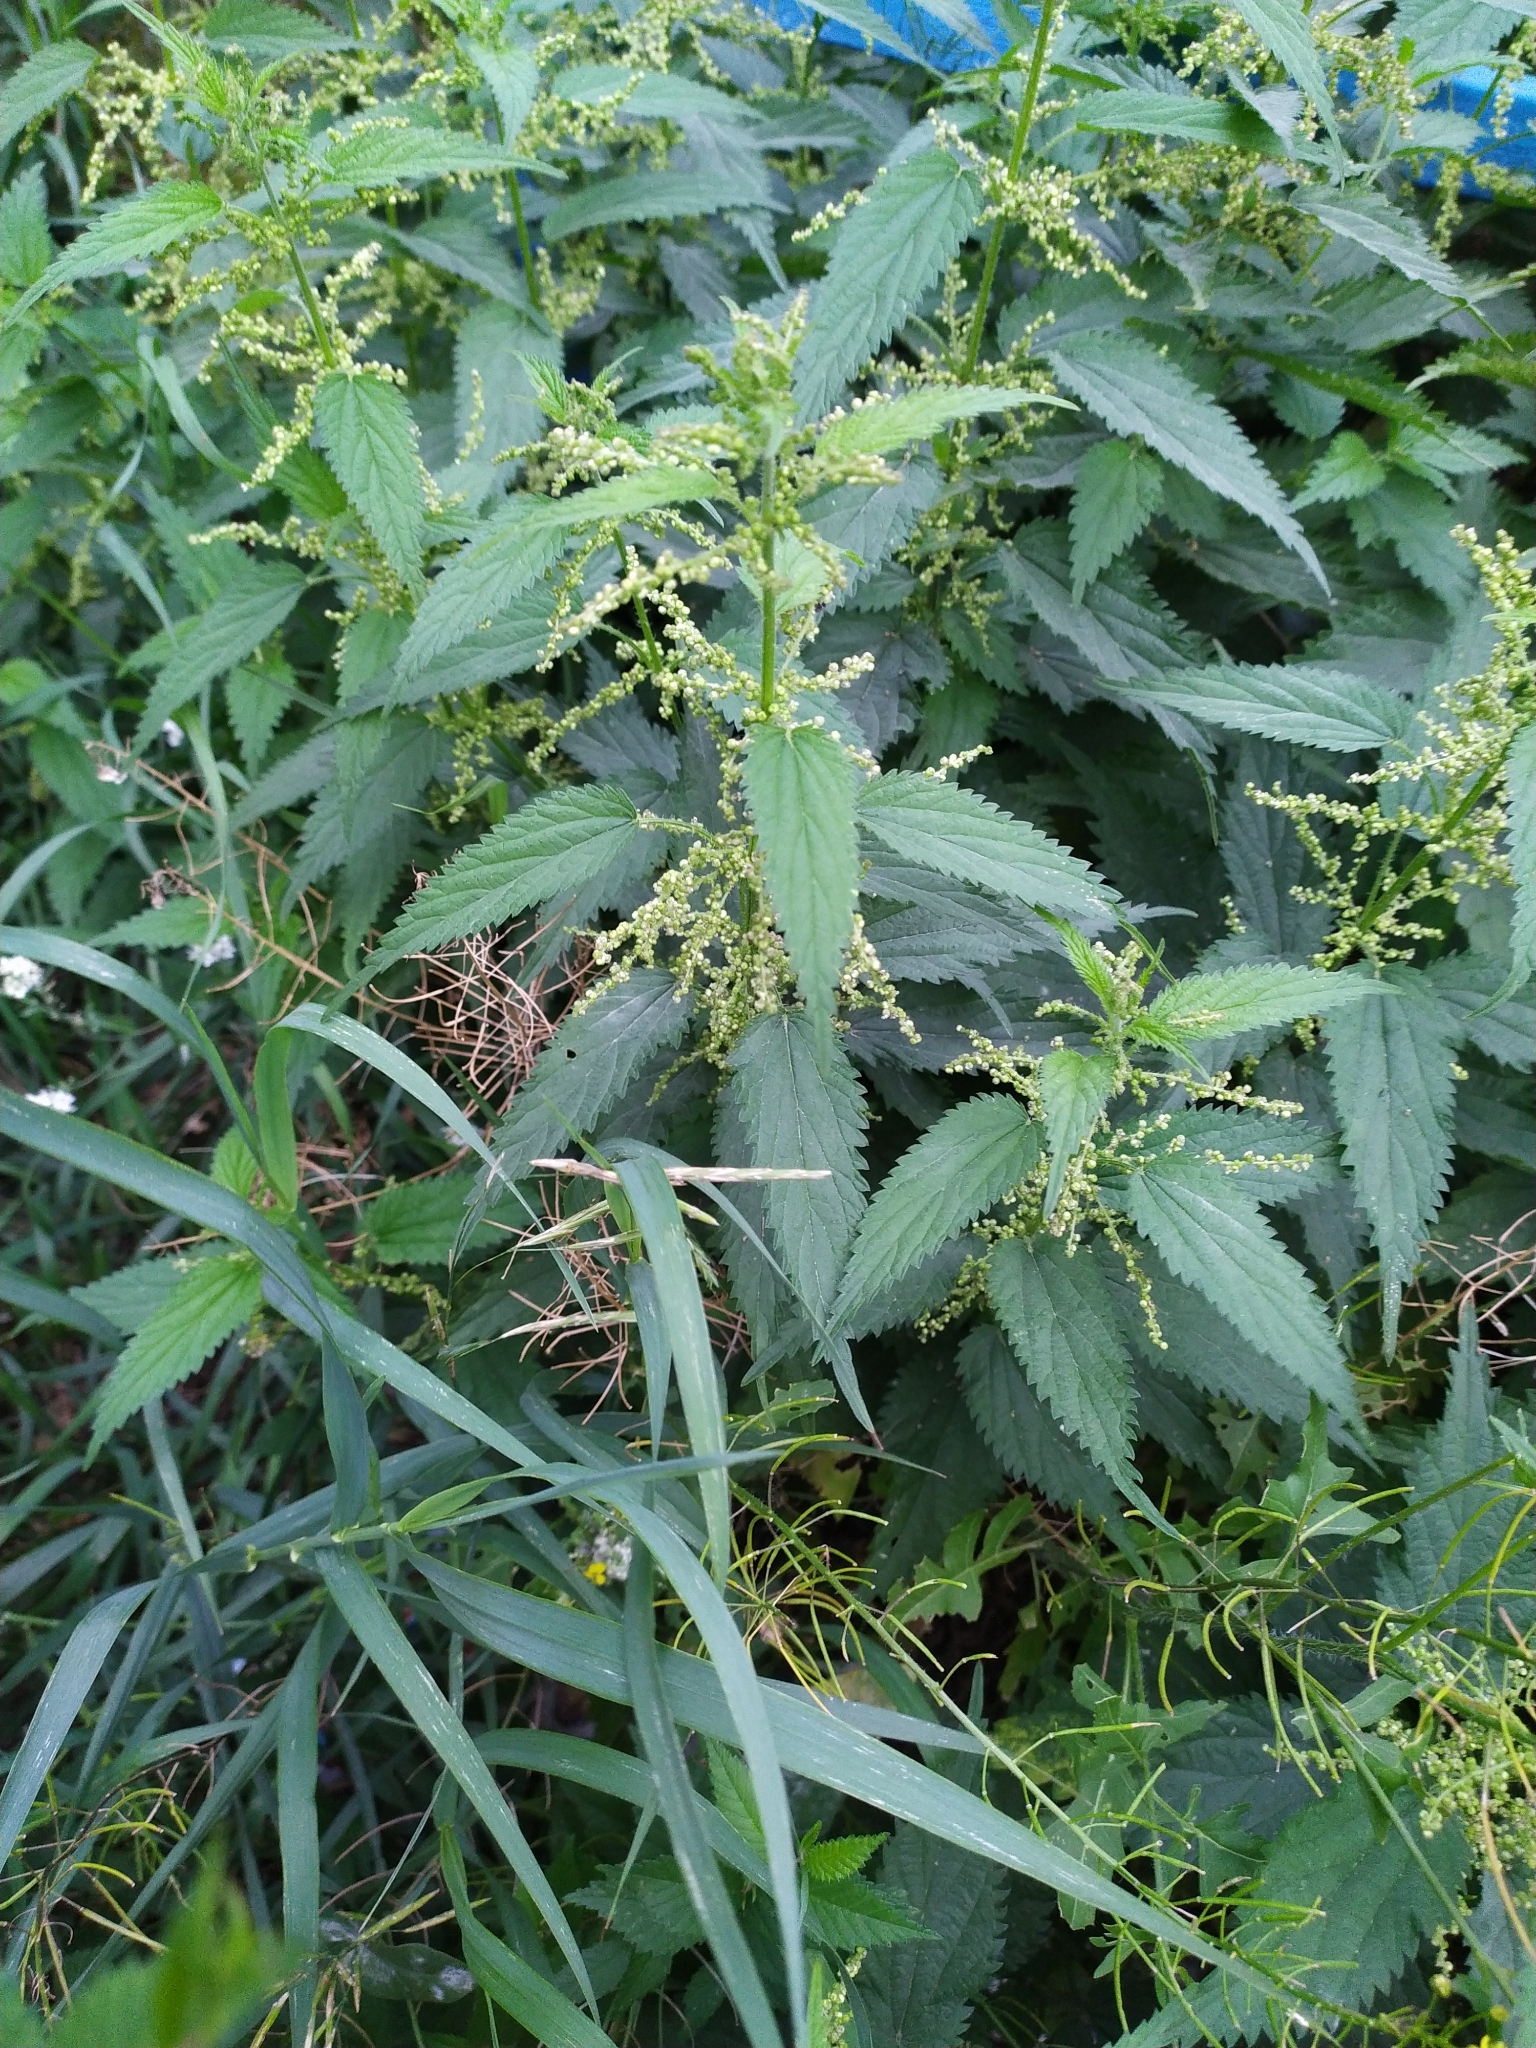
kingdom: Plantae
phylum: Tracheophyta
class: Magnoliopsida
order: Rosales
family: Urticaceae
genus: Urtica
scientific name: Urtica dioica
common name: Common nettle
